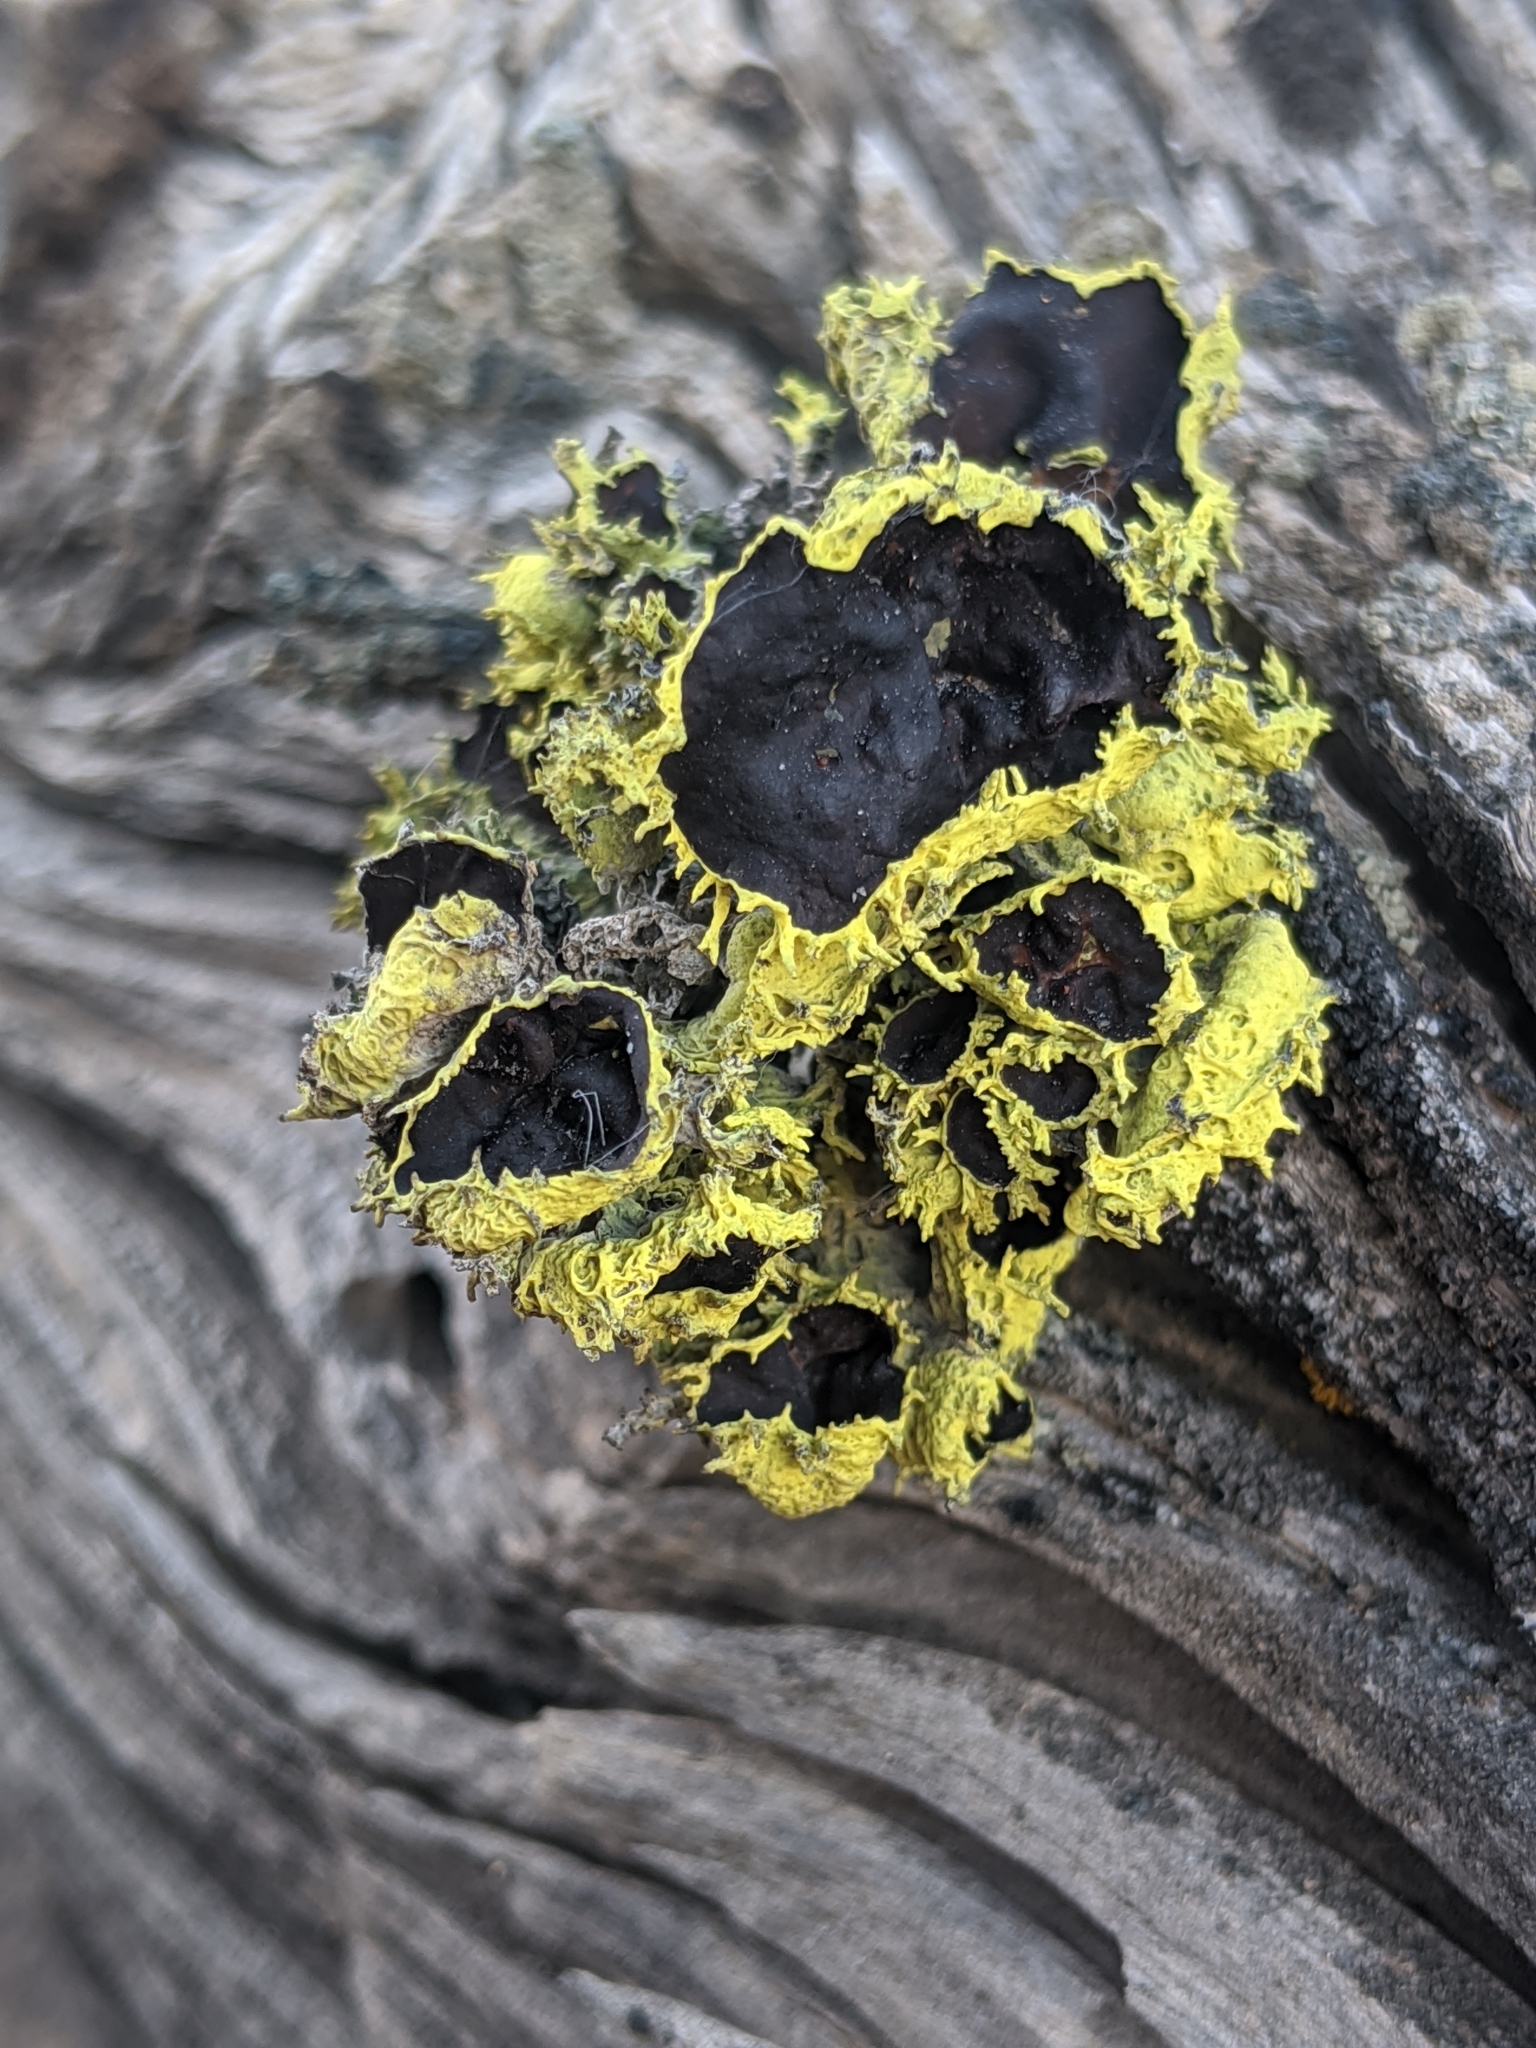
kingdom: Fungi
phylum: Ascomycota
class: Lecanoromycetes
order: Lecanorales
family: Parmeliaceae
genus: Letharia
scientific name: Letharia columbiana
